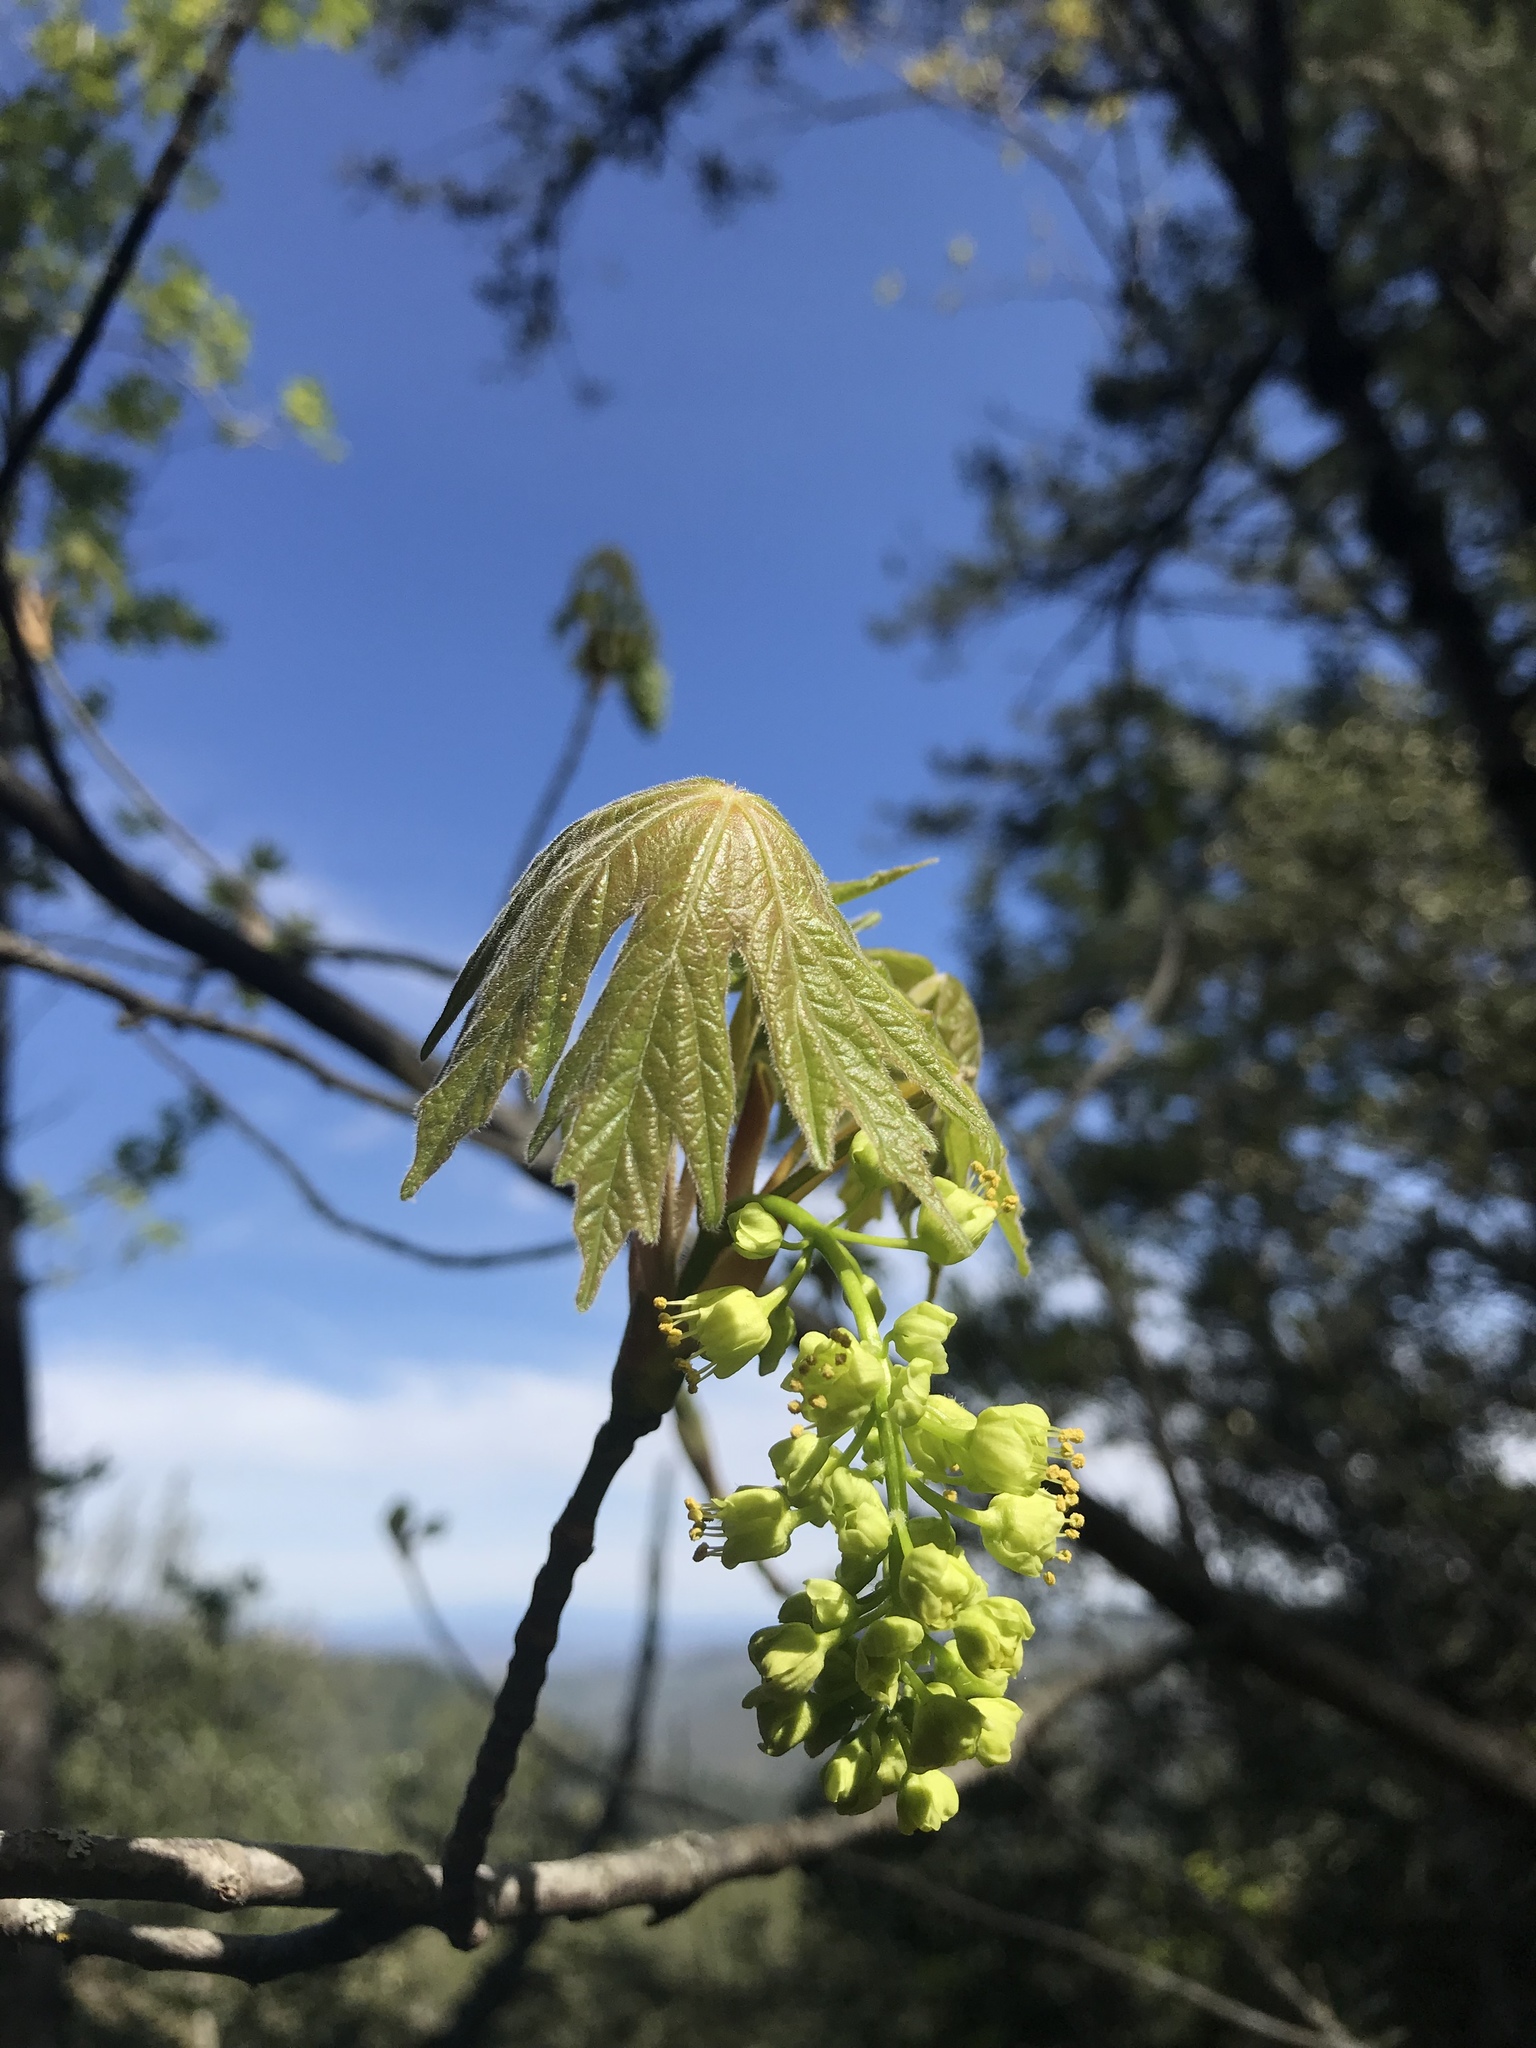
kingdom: Plantae
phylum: Tracheophyta
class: Magnoliopsida
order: Sapindales
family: Sapindaceae
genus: Acer
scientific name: Acer macrophyllum
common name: Oregon maple
